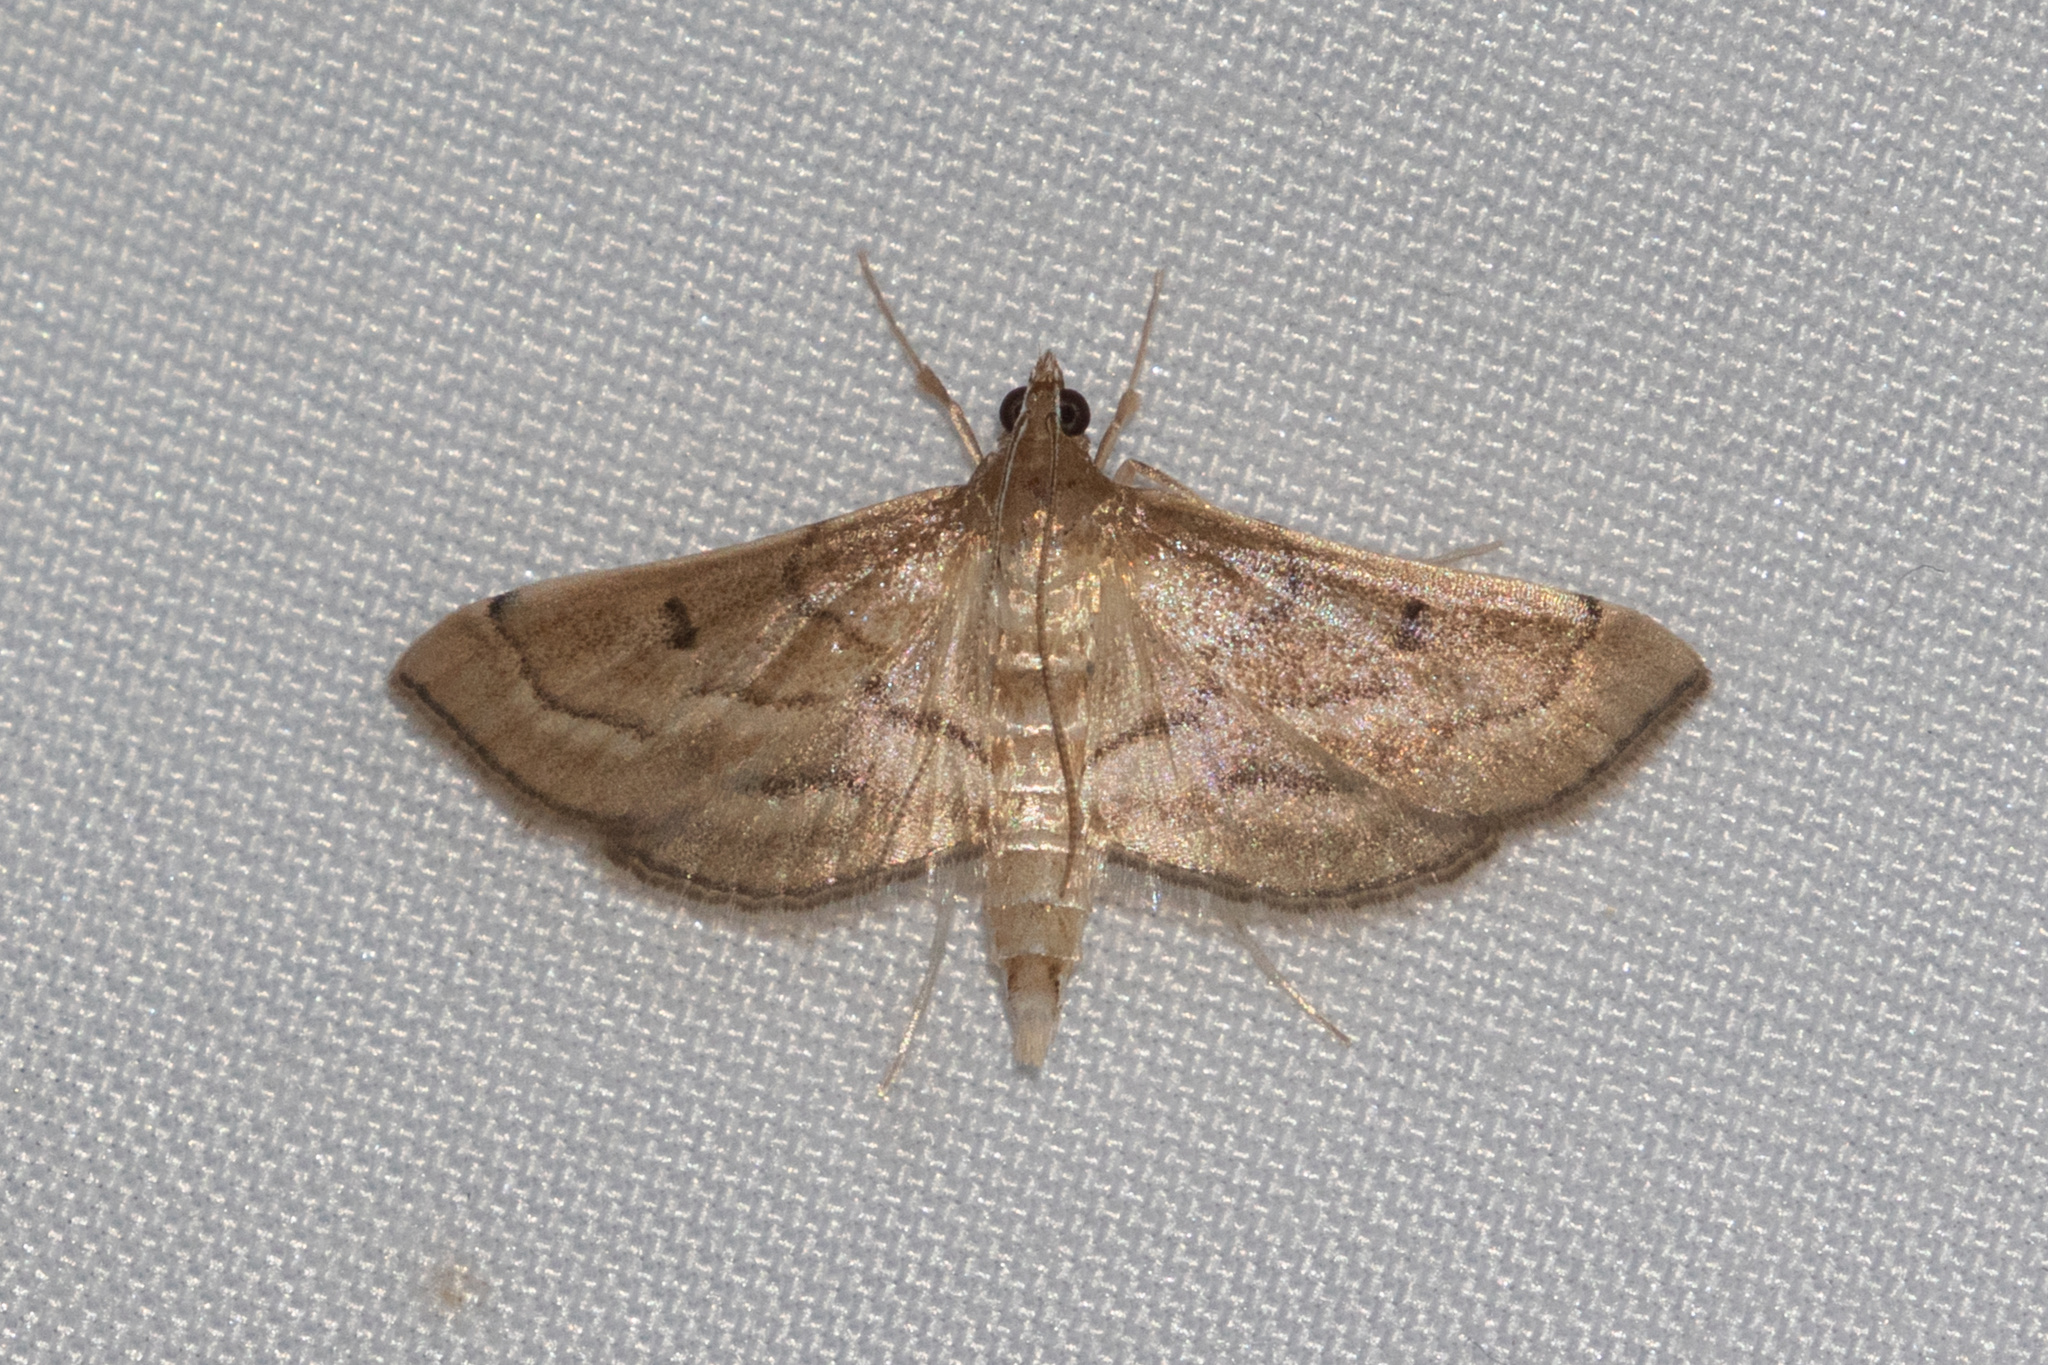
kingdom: Animalia
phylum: Arthropoda
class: Insecta
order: Lepidoptera
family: Crambidae
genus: Cnaphalocrocis
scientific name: Cnaphalocrocis Marasmia trapezalis
